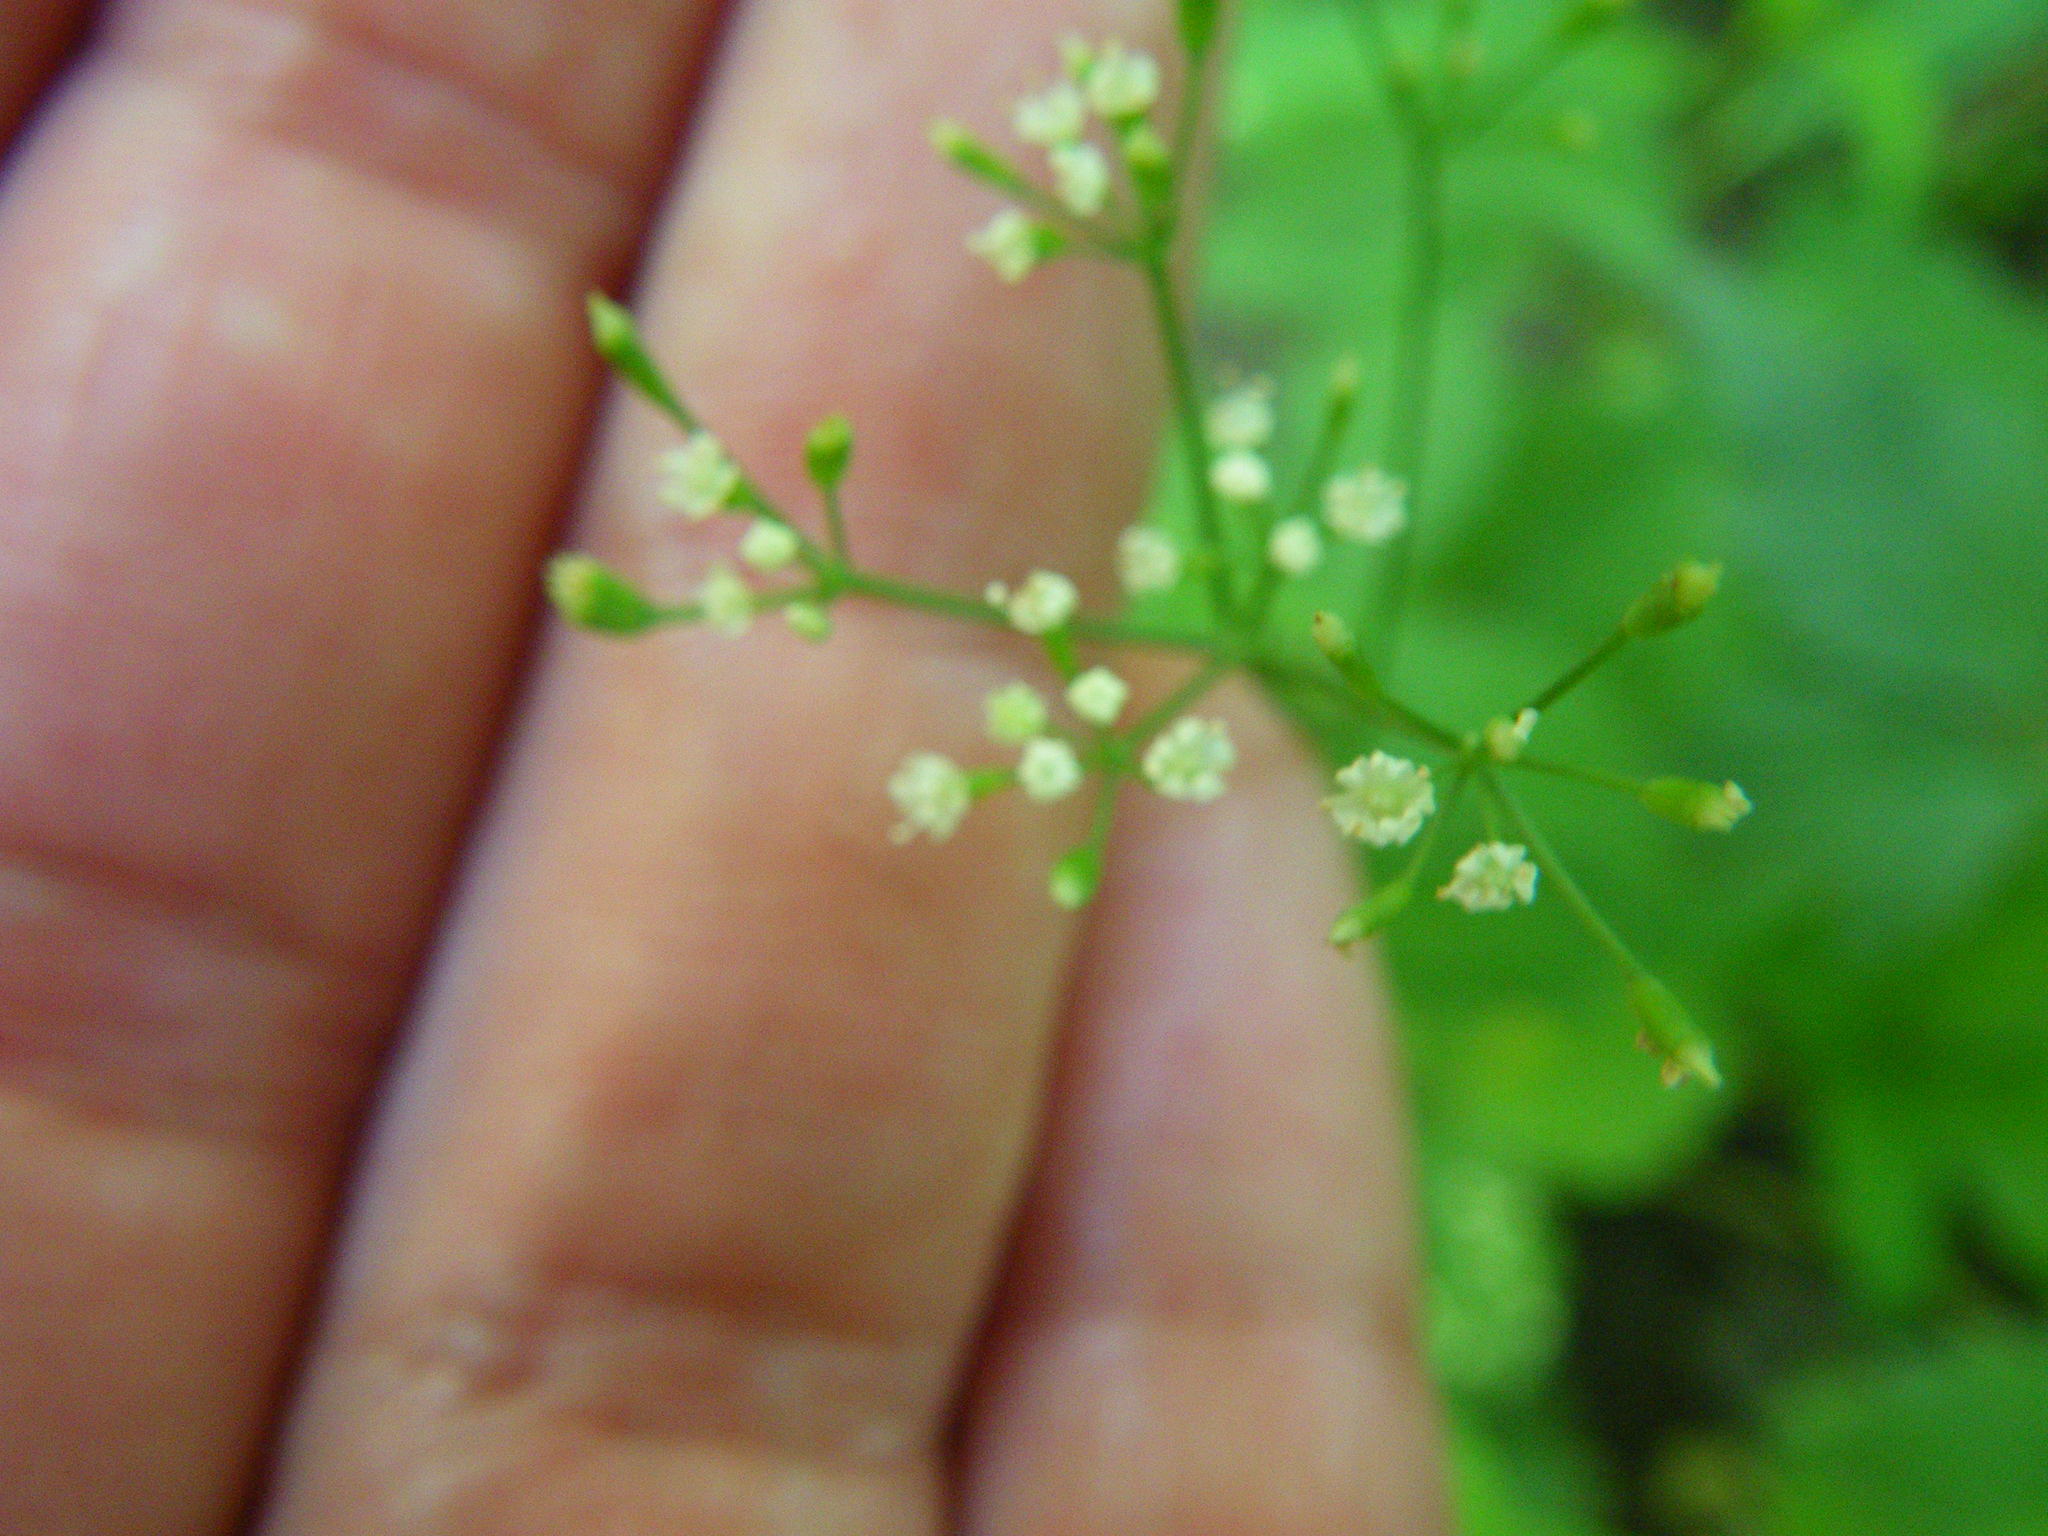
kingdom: Plantae
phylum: Tracheophyta
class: Magnoliopsida
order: Apiales
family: Apiaceae
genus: Cryptotaenia
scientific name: Cryptotaenia canadensis
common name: Honewort
